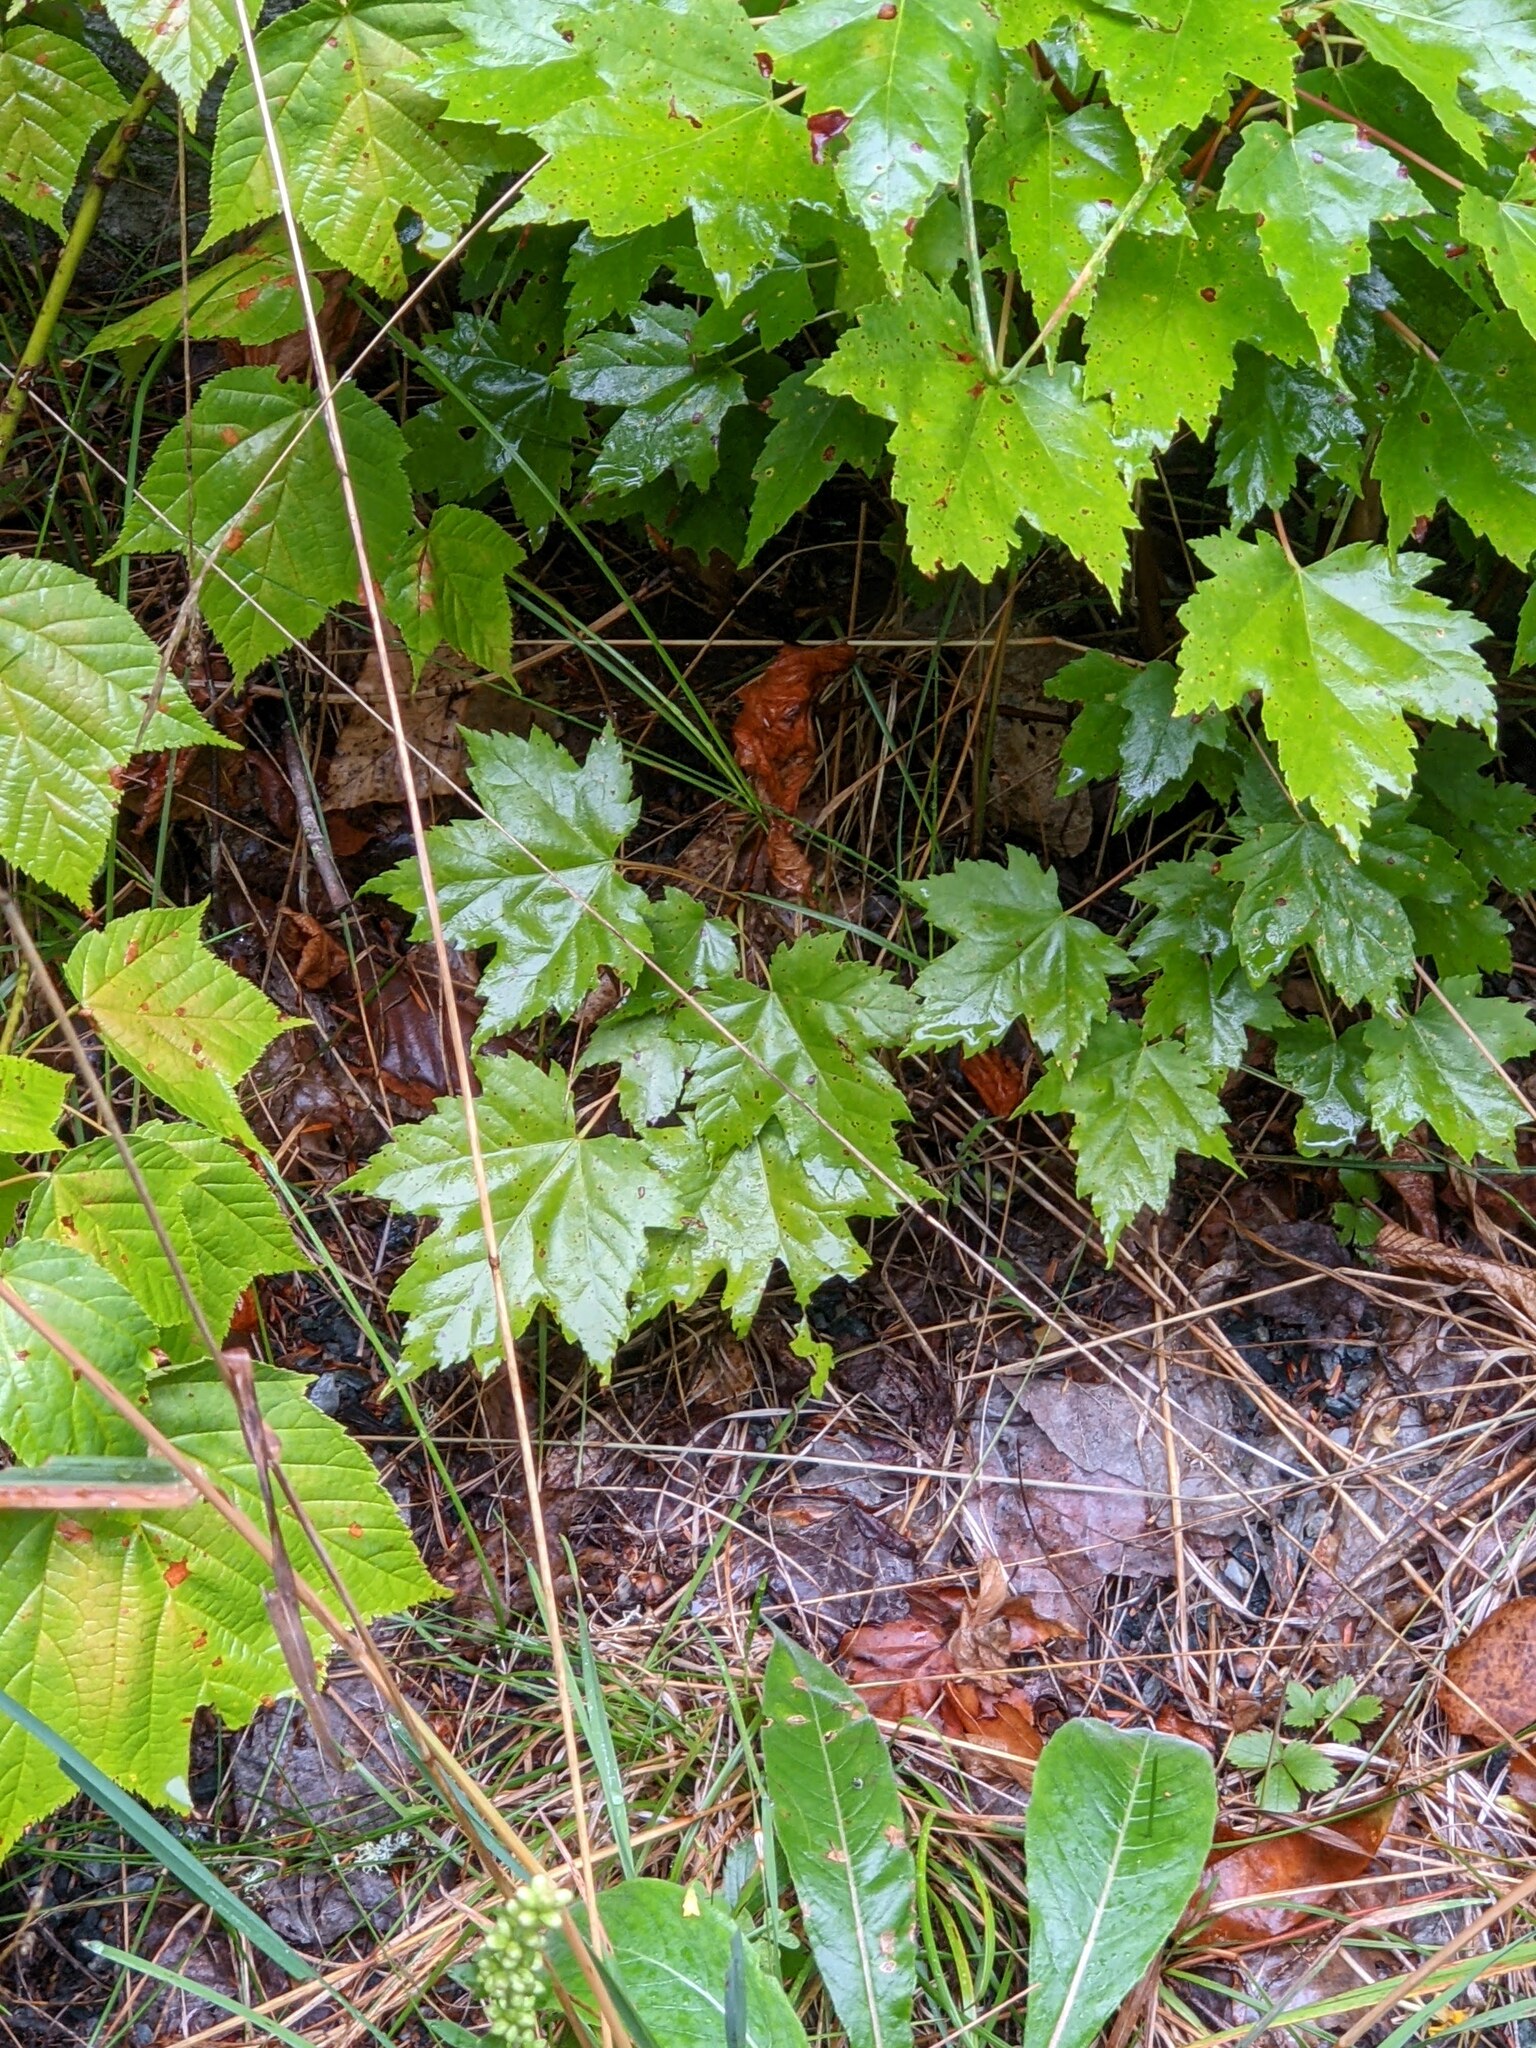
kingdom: Plantae
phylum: Tracheophyta
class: Magnoliopsida
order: Sapindales
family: Sapindaceae
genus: Acer
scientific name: Acer rubrum
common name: Red maple
